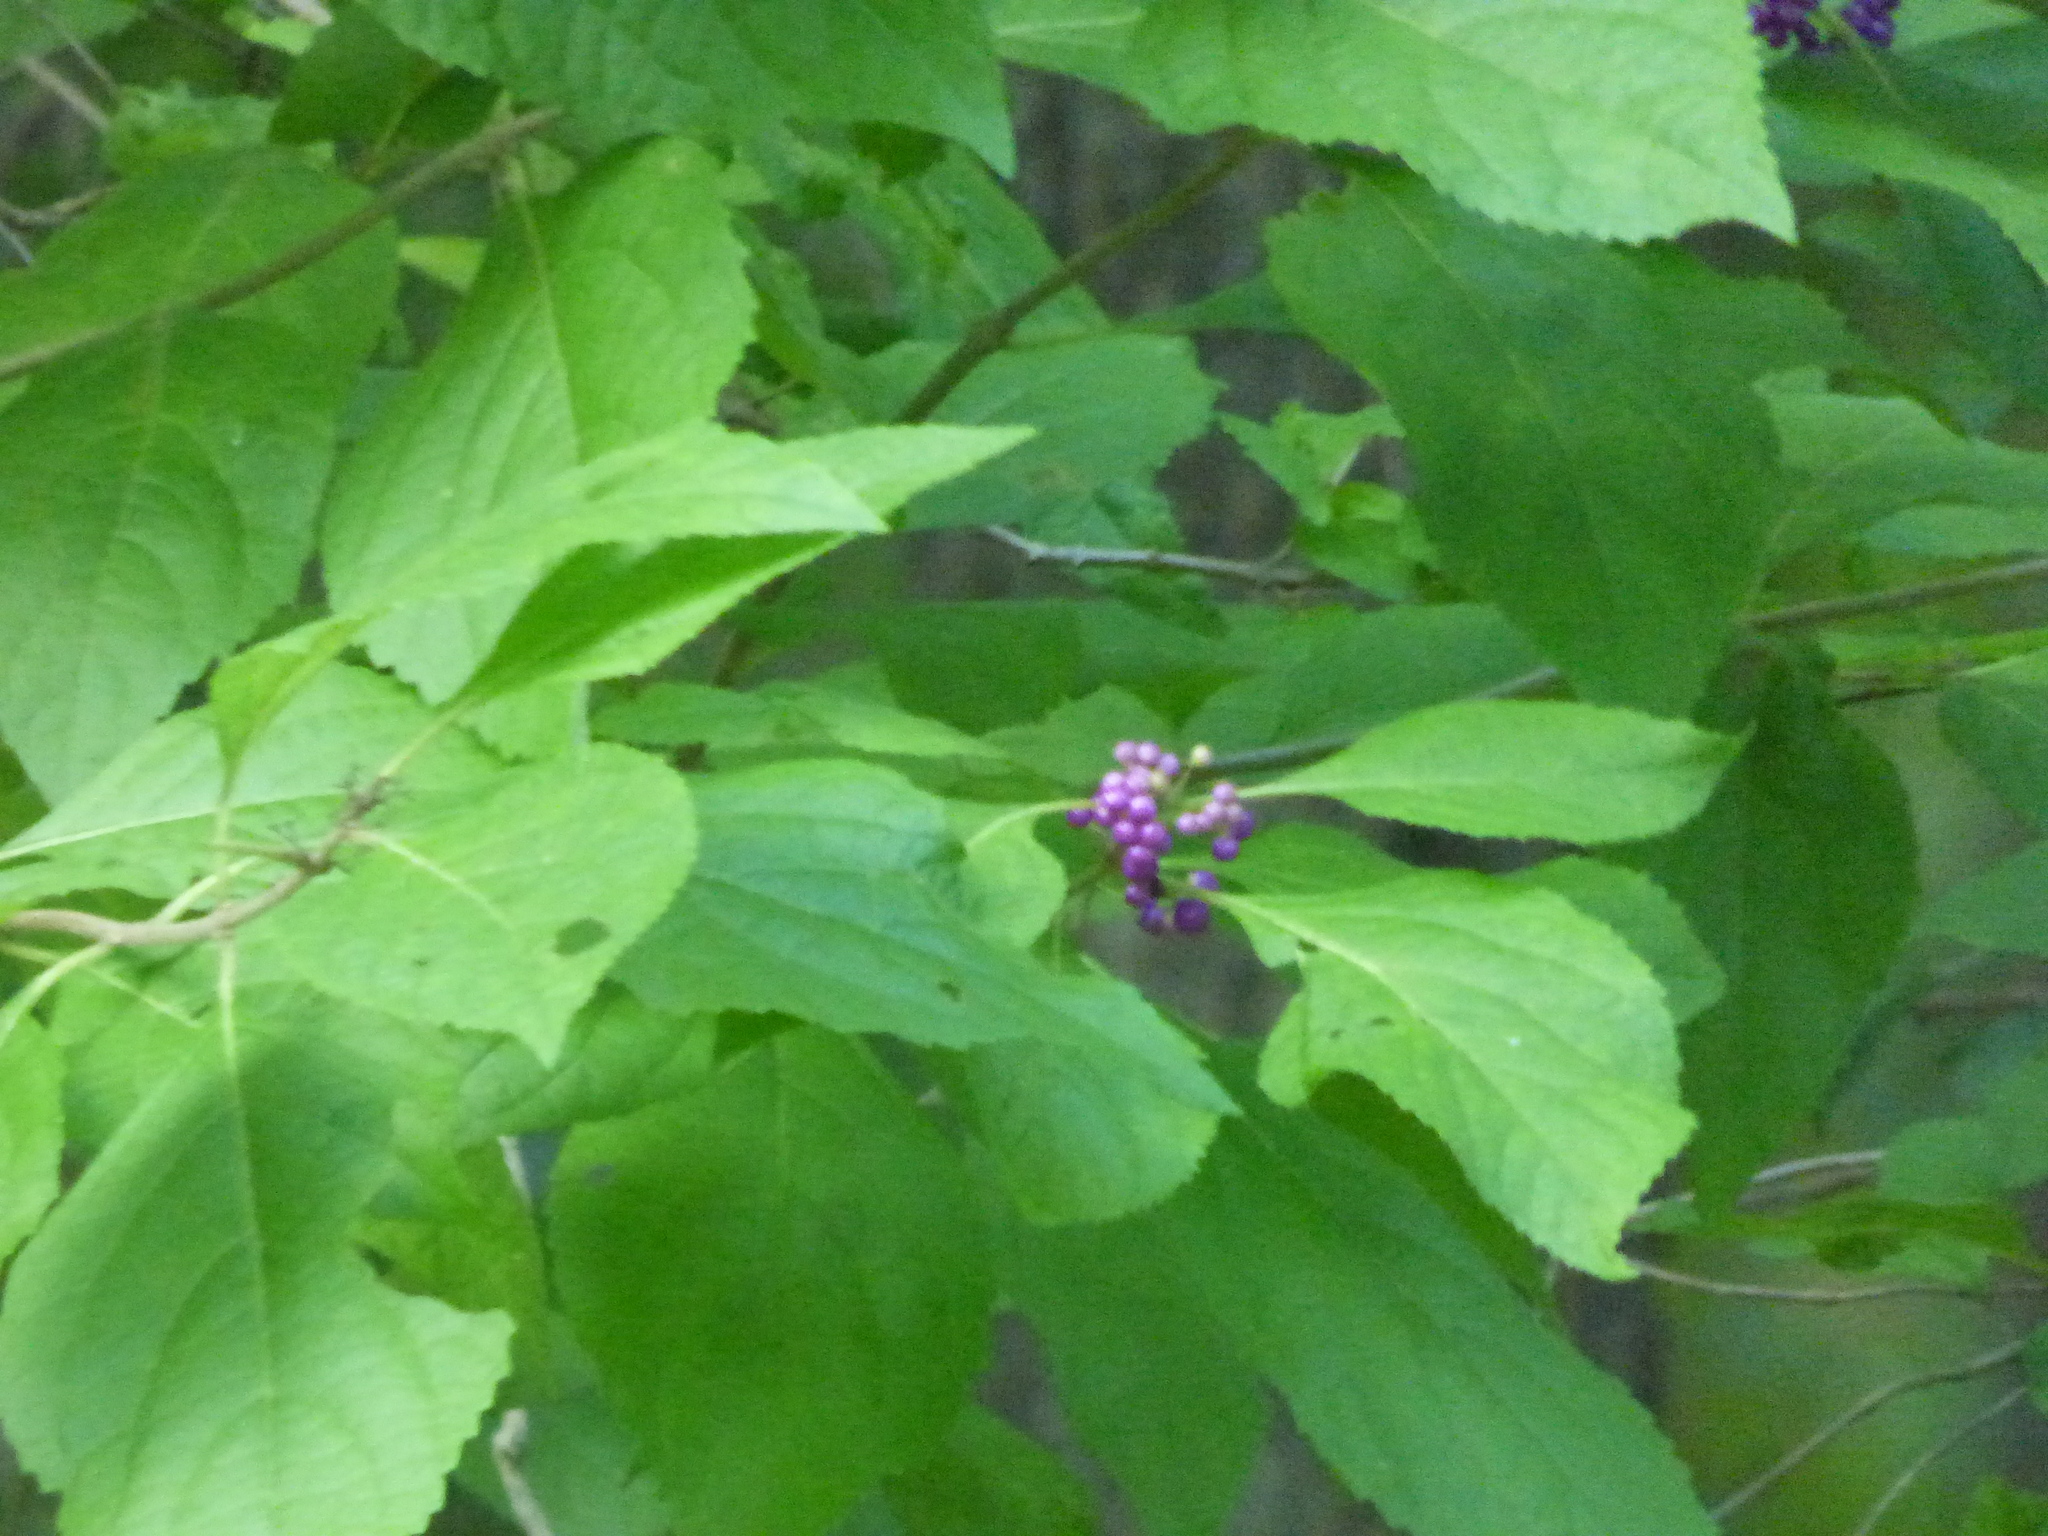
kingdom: Plantae
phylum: Tracheophyta
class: Magnoliopsida
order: Lamiales
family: Lamiaceae
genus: Callicarpa
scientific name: Callicarpa americana
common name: American beautyberry
